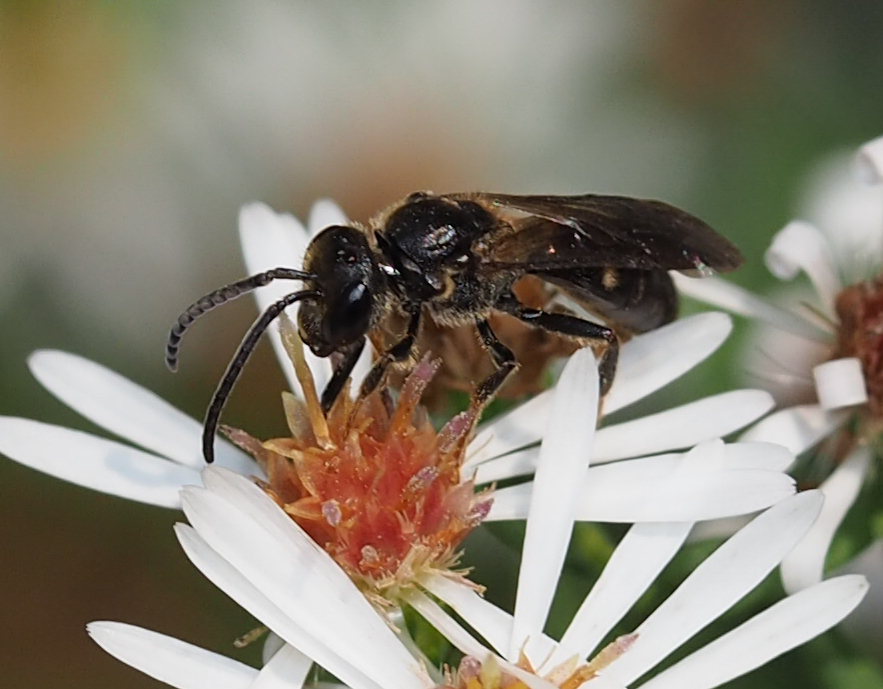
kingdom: Animalia
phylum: Arthropoda
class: Insecta
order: Hymenoptera
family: Halictidae
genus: Lasioglossum
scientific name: Lasioglossum fuscipenne
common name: Brown-winged sweat bee
